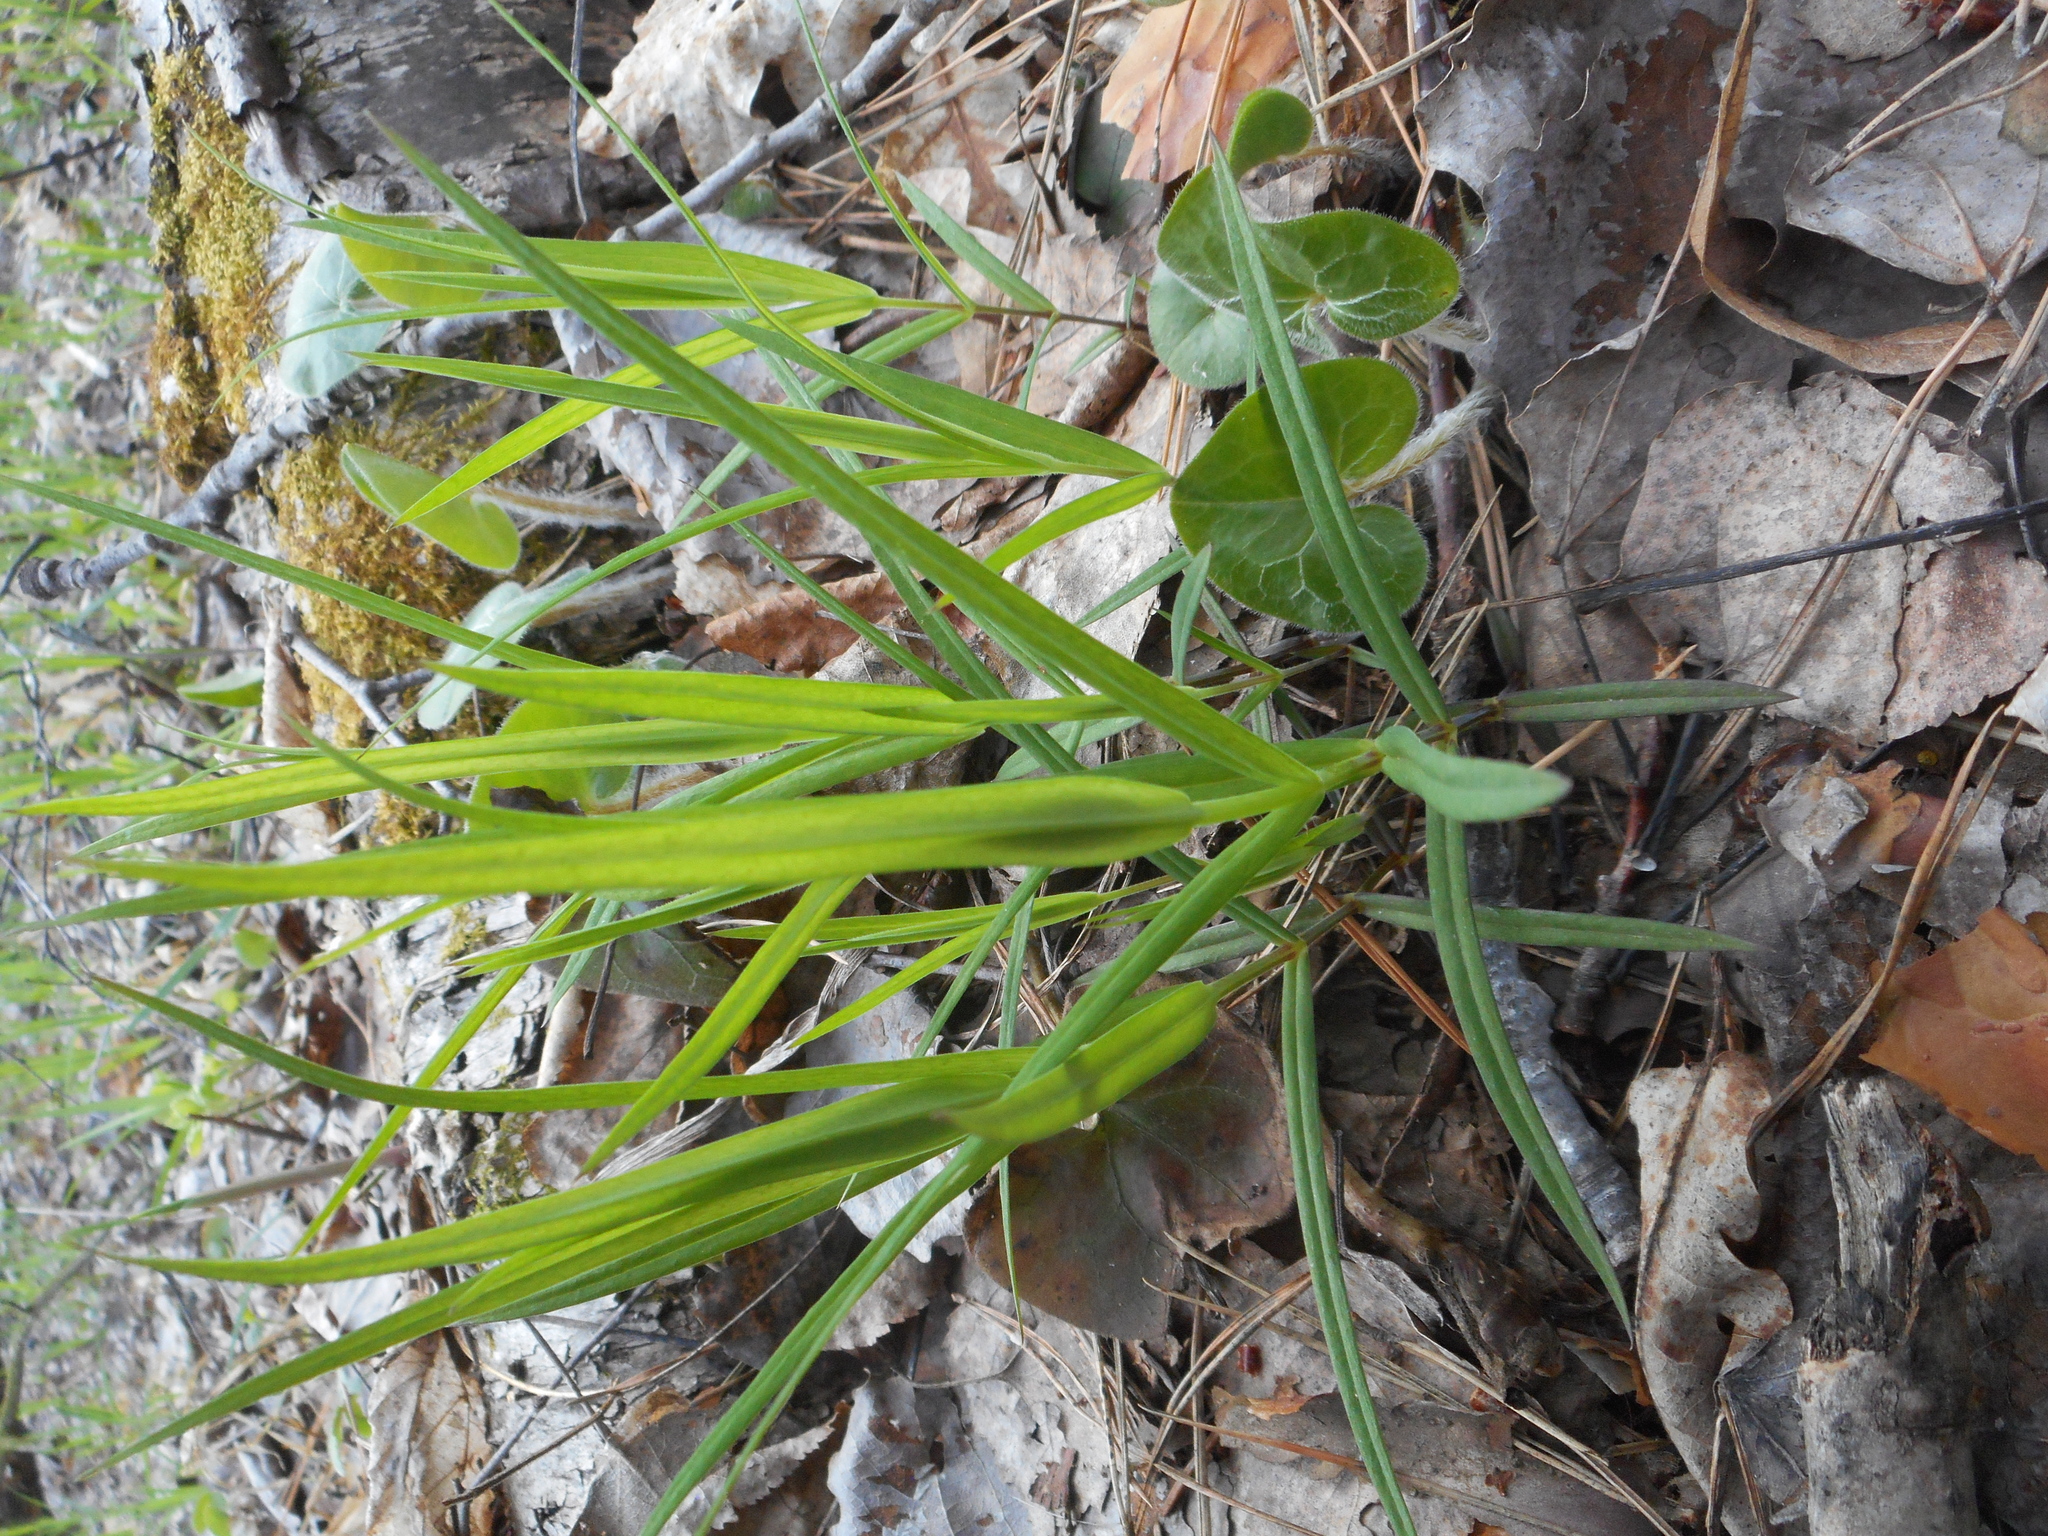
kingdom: Plantae
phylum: Tracheophyta
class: Magnoliopsida
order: Caryophyllales
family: Caryophyllaceae
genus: Rabelera
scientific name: Rabelera holostea
